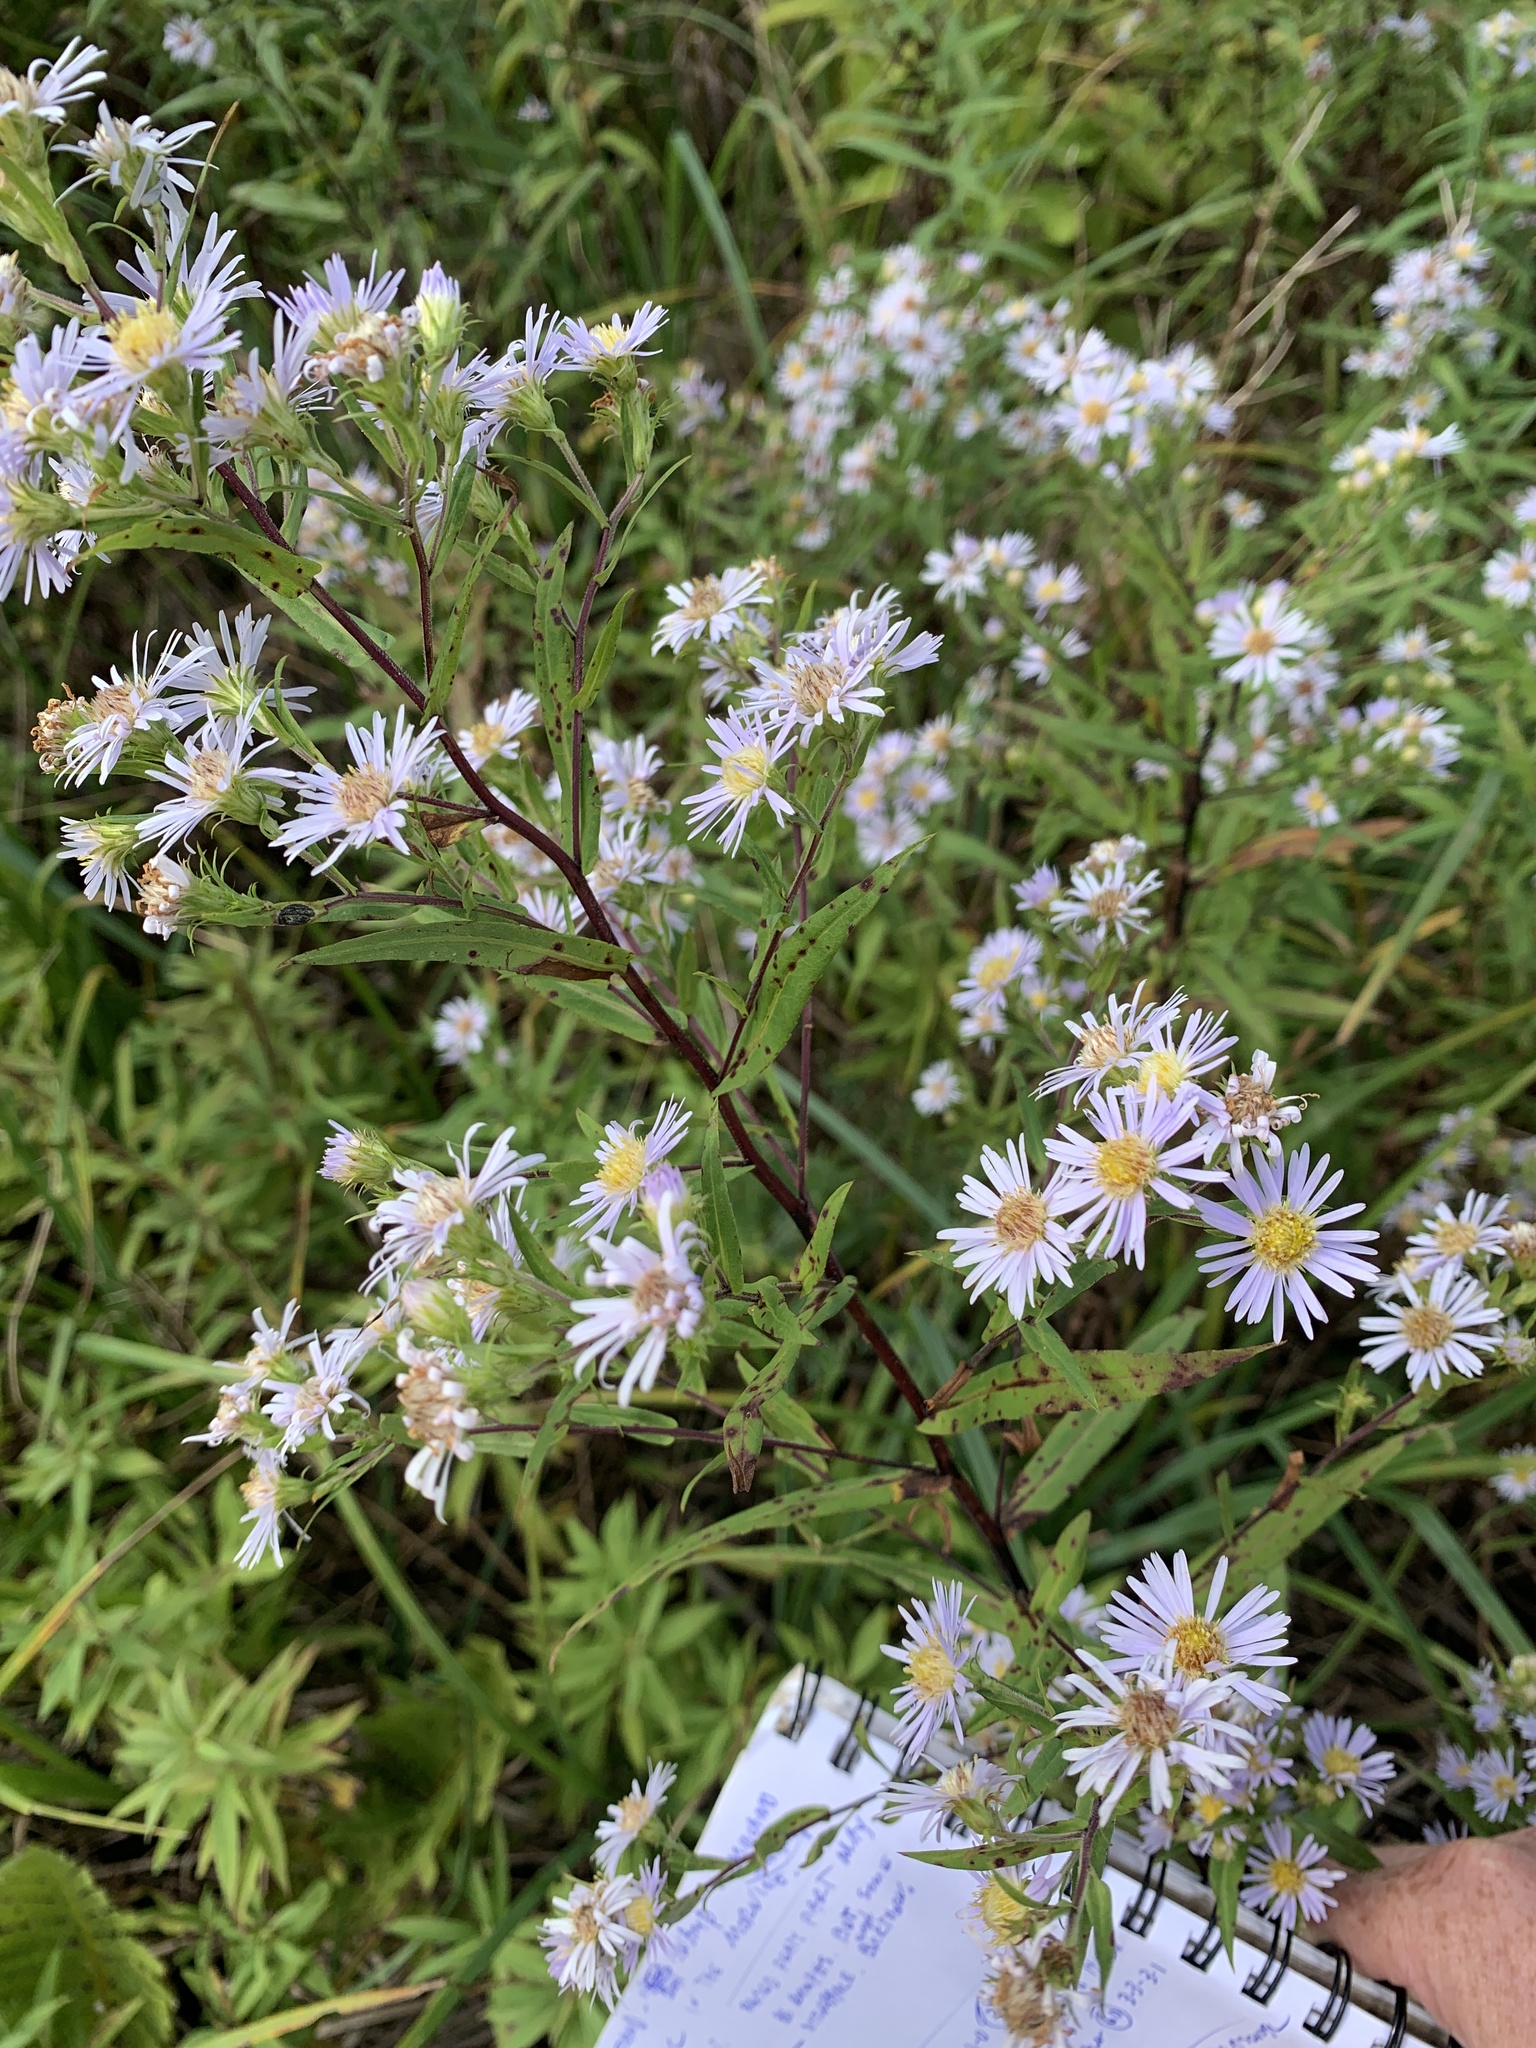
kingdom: Plantae
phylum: Tracheophyta
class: Magnoliopsida
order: Asterales
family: Asteraceae
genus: Symphyotrichum
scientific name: Symphyotrichum puniceum
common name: Bog aster
